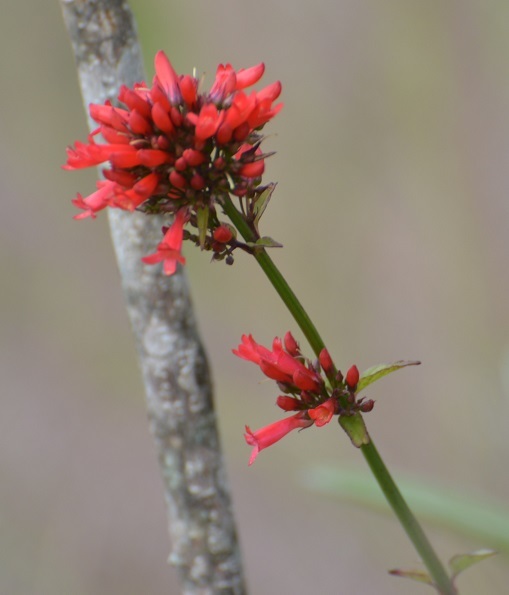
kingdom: Plantae
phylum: Tracheophyta
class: Magnoliopsida
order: Lamiales
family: Plantaginaceae
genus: Russelia
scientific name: Russelia verticillata
